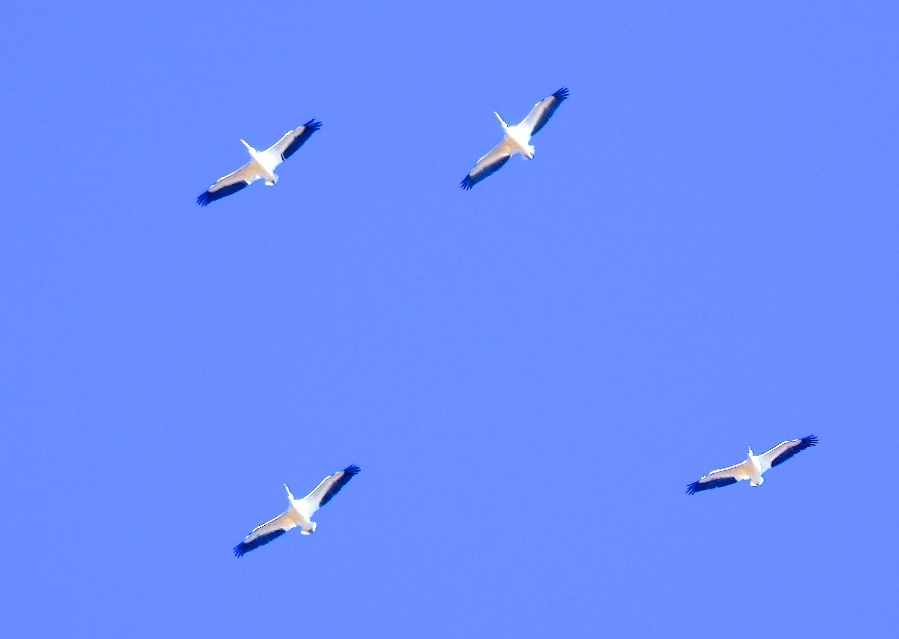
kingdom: Animalia
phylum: Chordata
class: Aves
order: Pelecaniformes
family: Pelecanidae
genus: Pelecanus
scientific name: Pelecanus erythrorhynchos
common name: American white pelican
